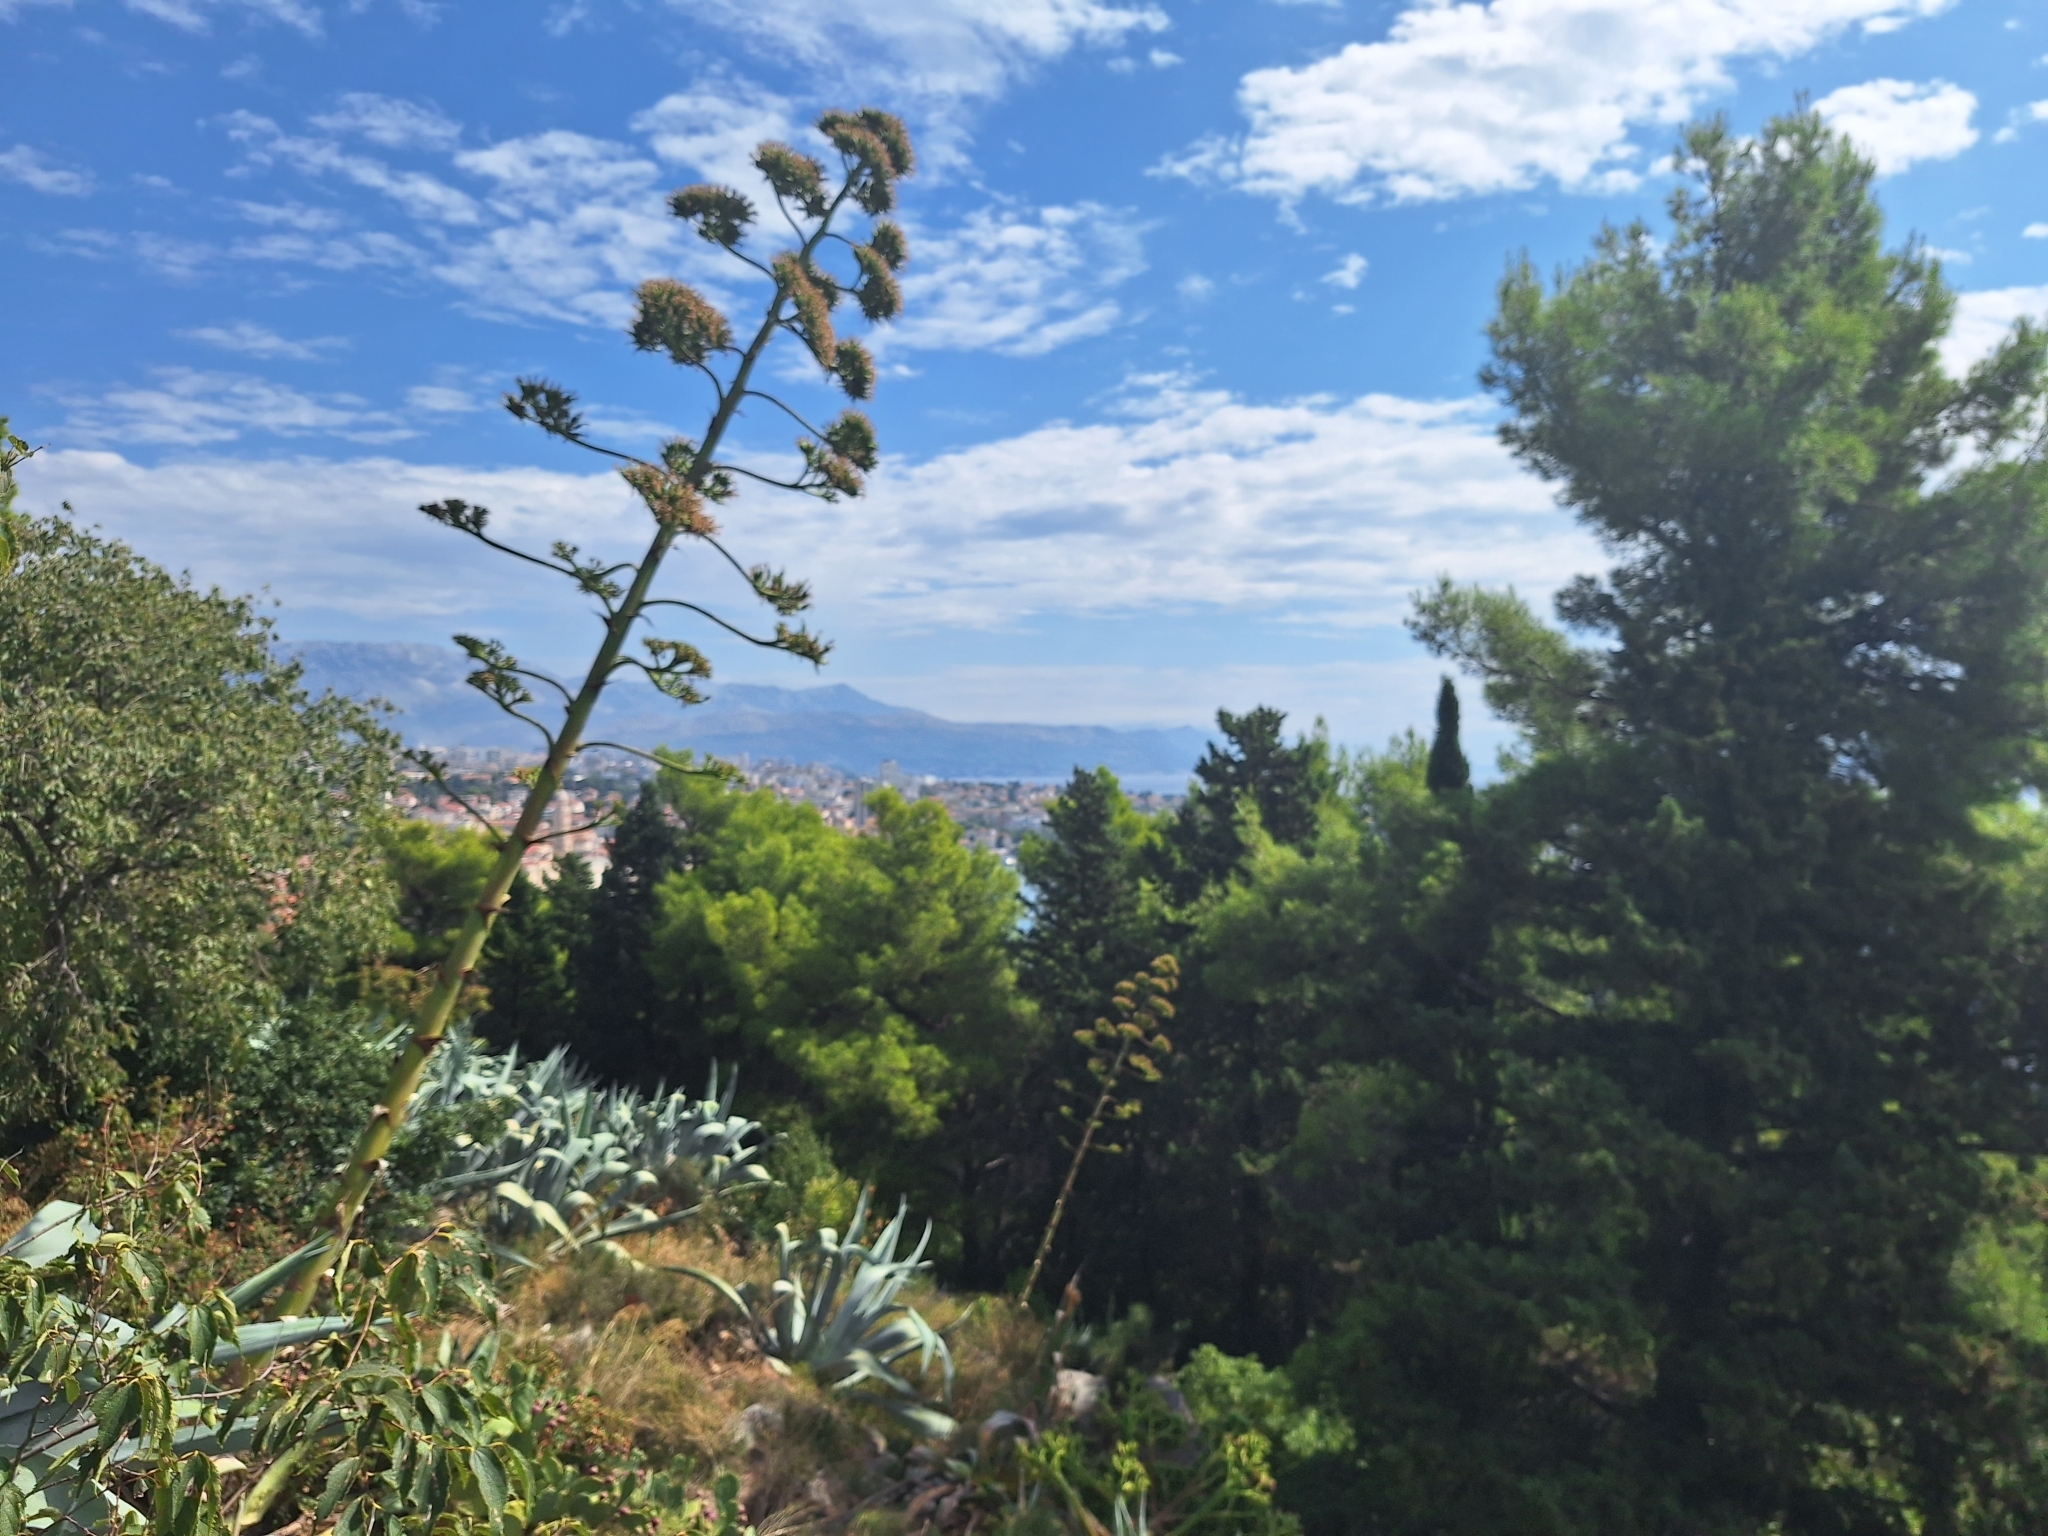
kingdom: Plantae
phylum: Tracheophyta
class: Liliopsida
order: Asparagales
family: Asparagaceae
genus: Agave
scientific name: Agave americana
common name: Centuryplant
